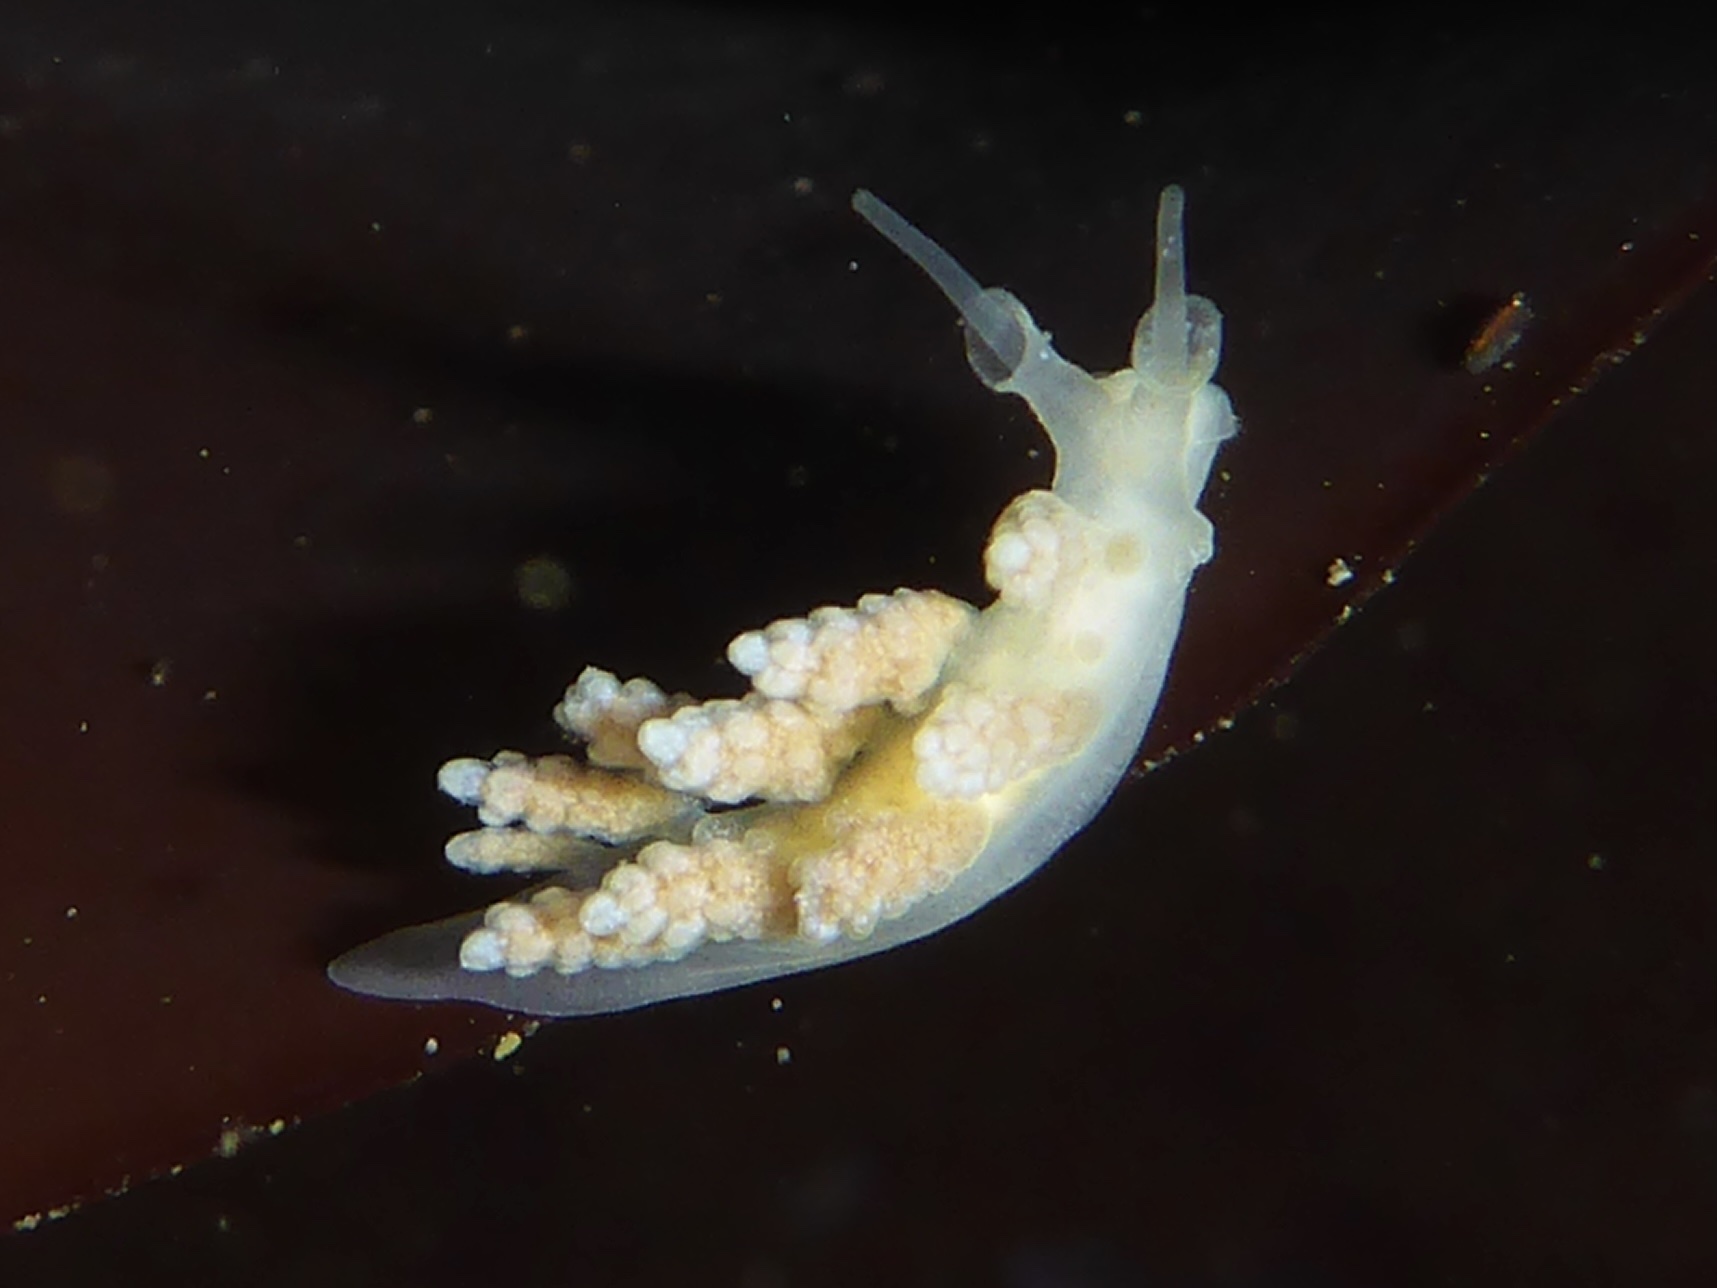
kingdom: Animalia
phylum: Mollusca
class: Gastropoda
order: Nudibranchia
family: Dotidae
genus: Doto
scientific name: Doto amyra
